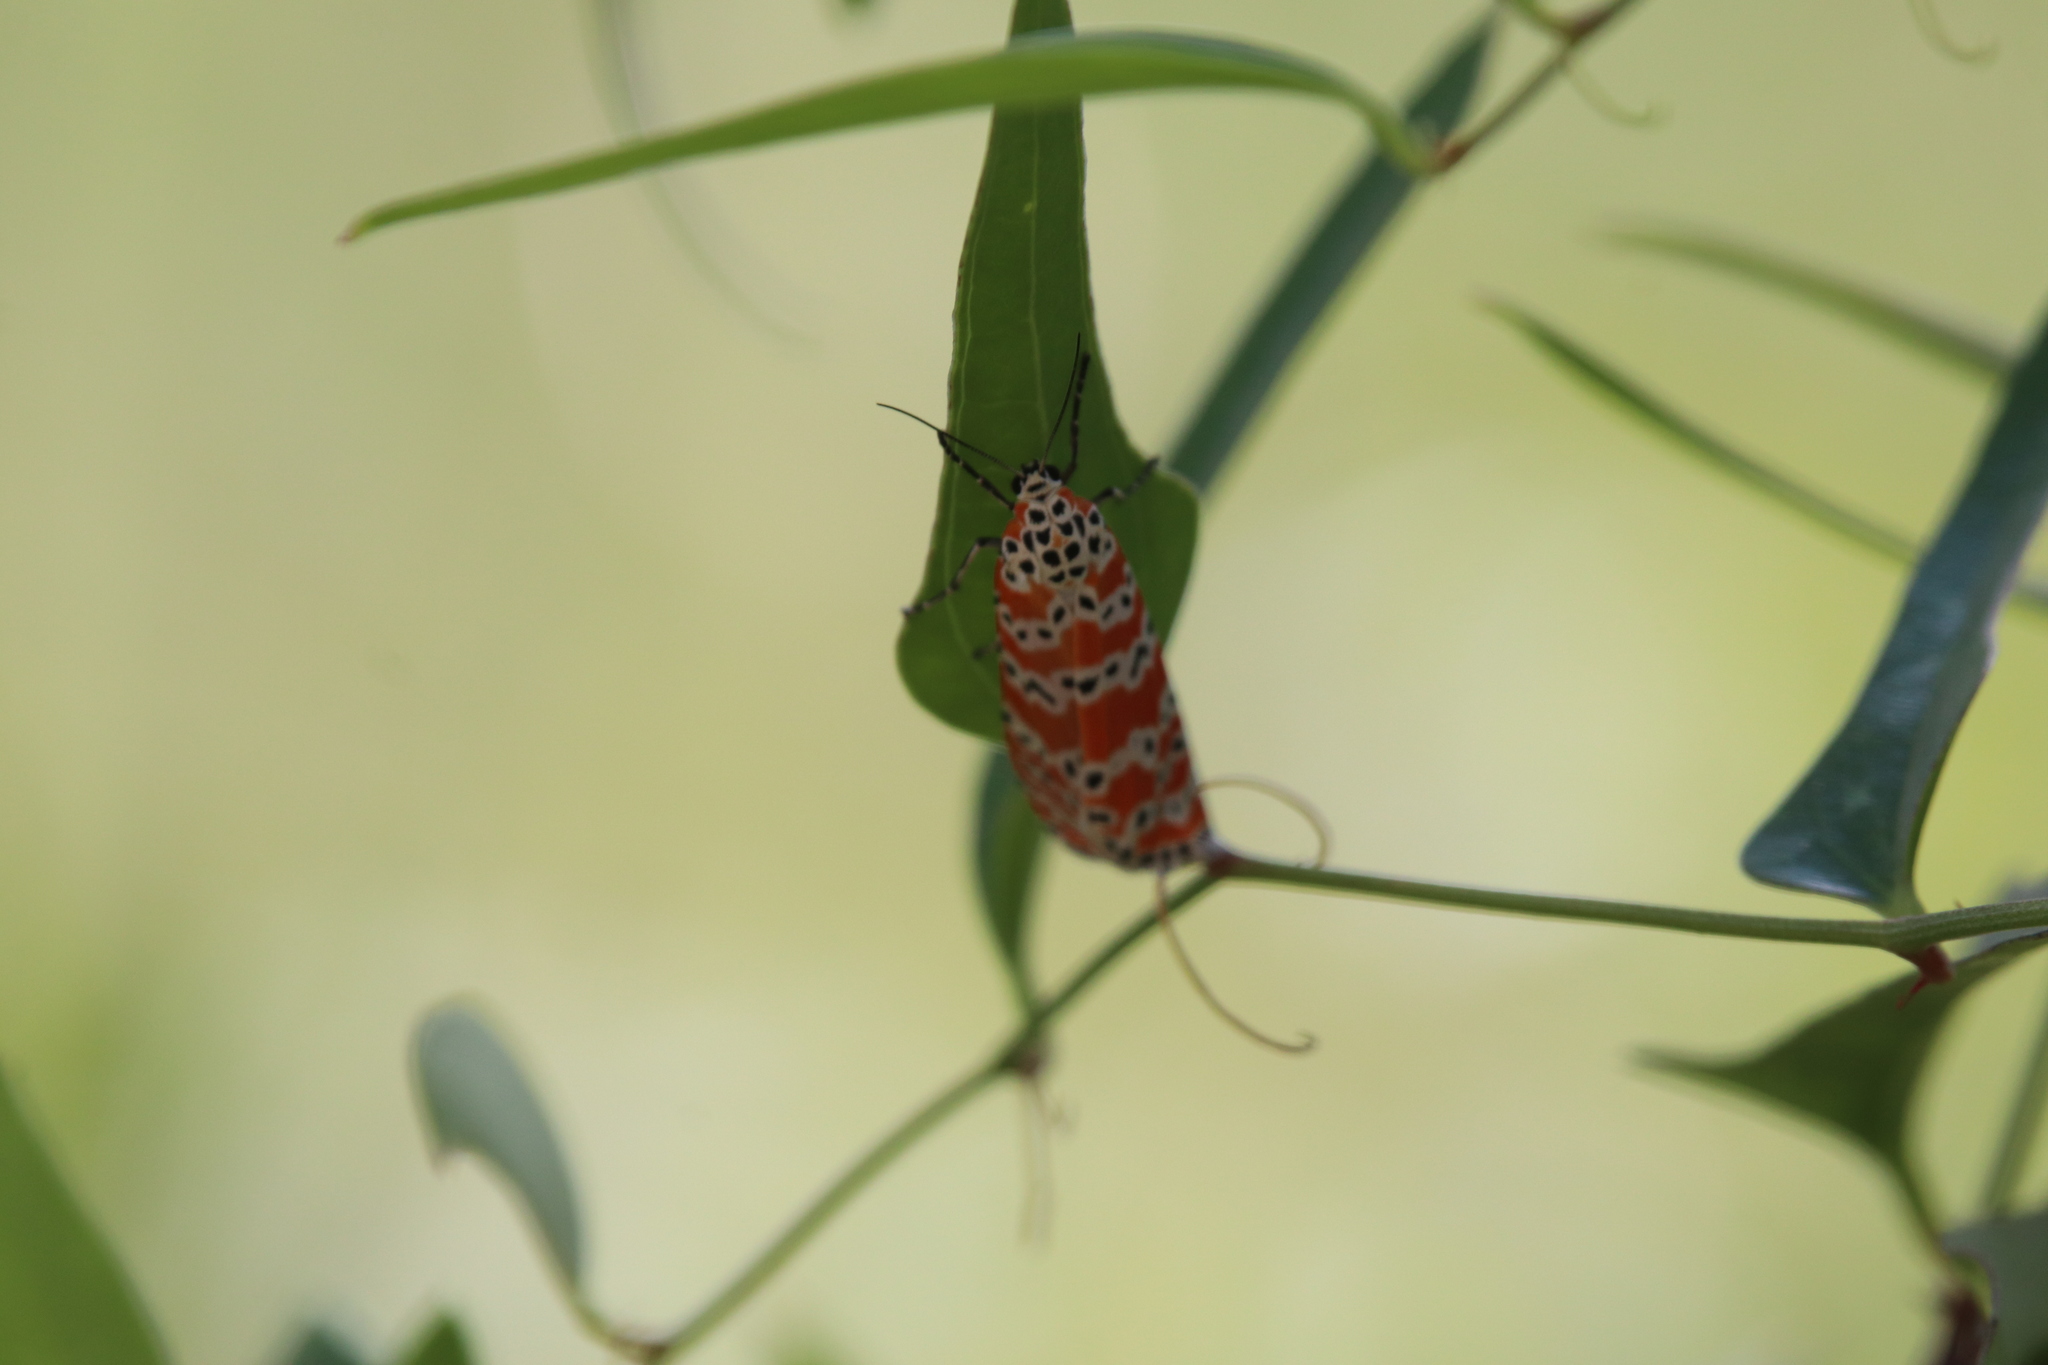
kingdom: Animalia
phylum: Arthropoda
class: Insecta
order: Lepidoptera
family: Erebidae
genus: Utetheisa
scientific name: Utetheisa ornatrix
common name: Beautiful utetheisa
